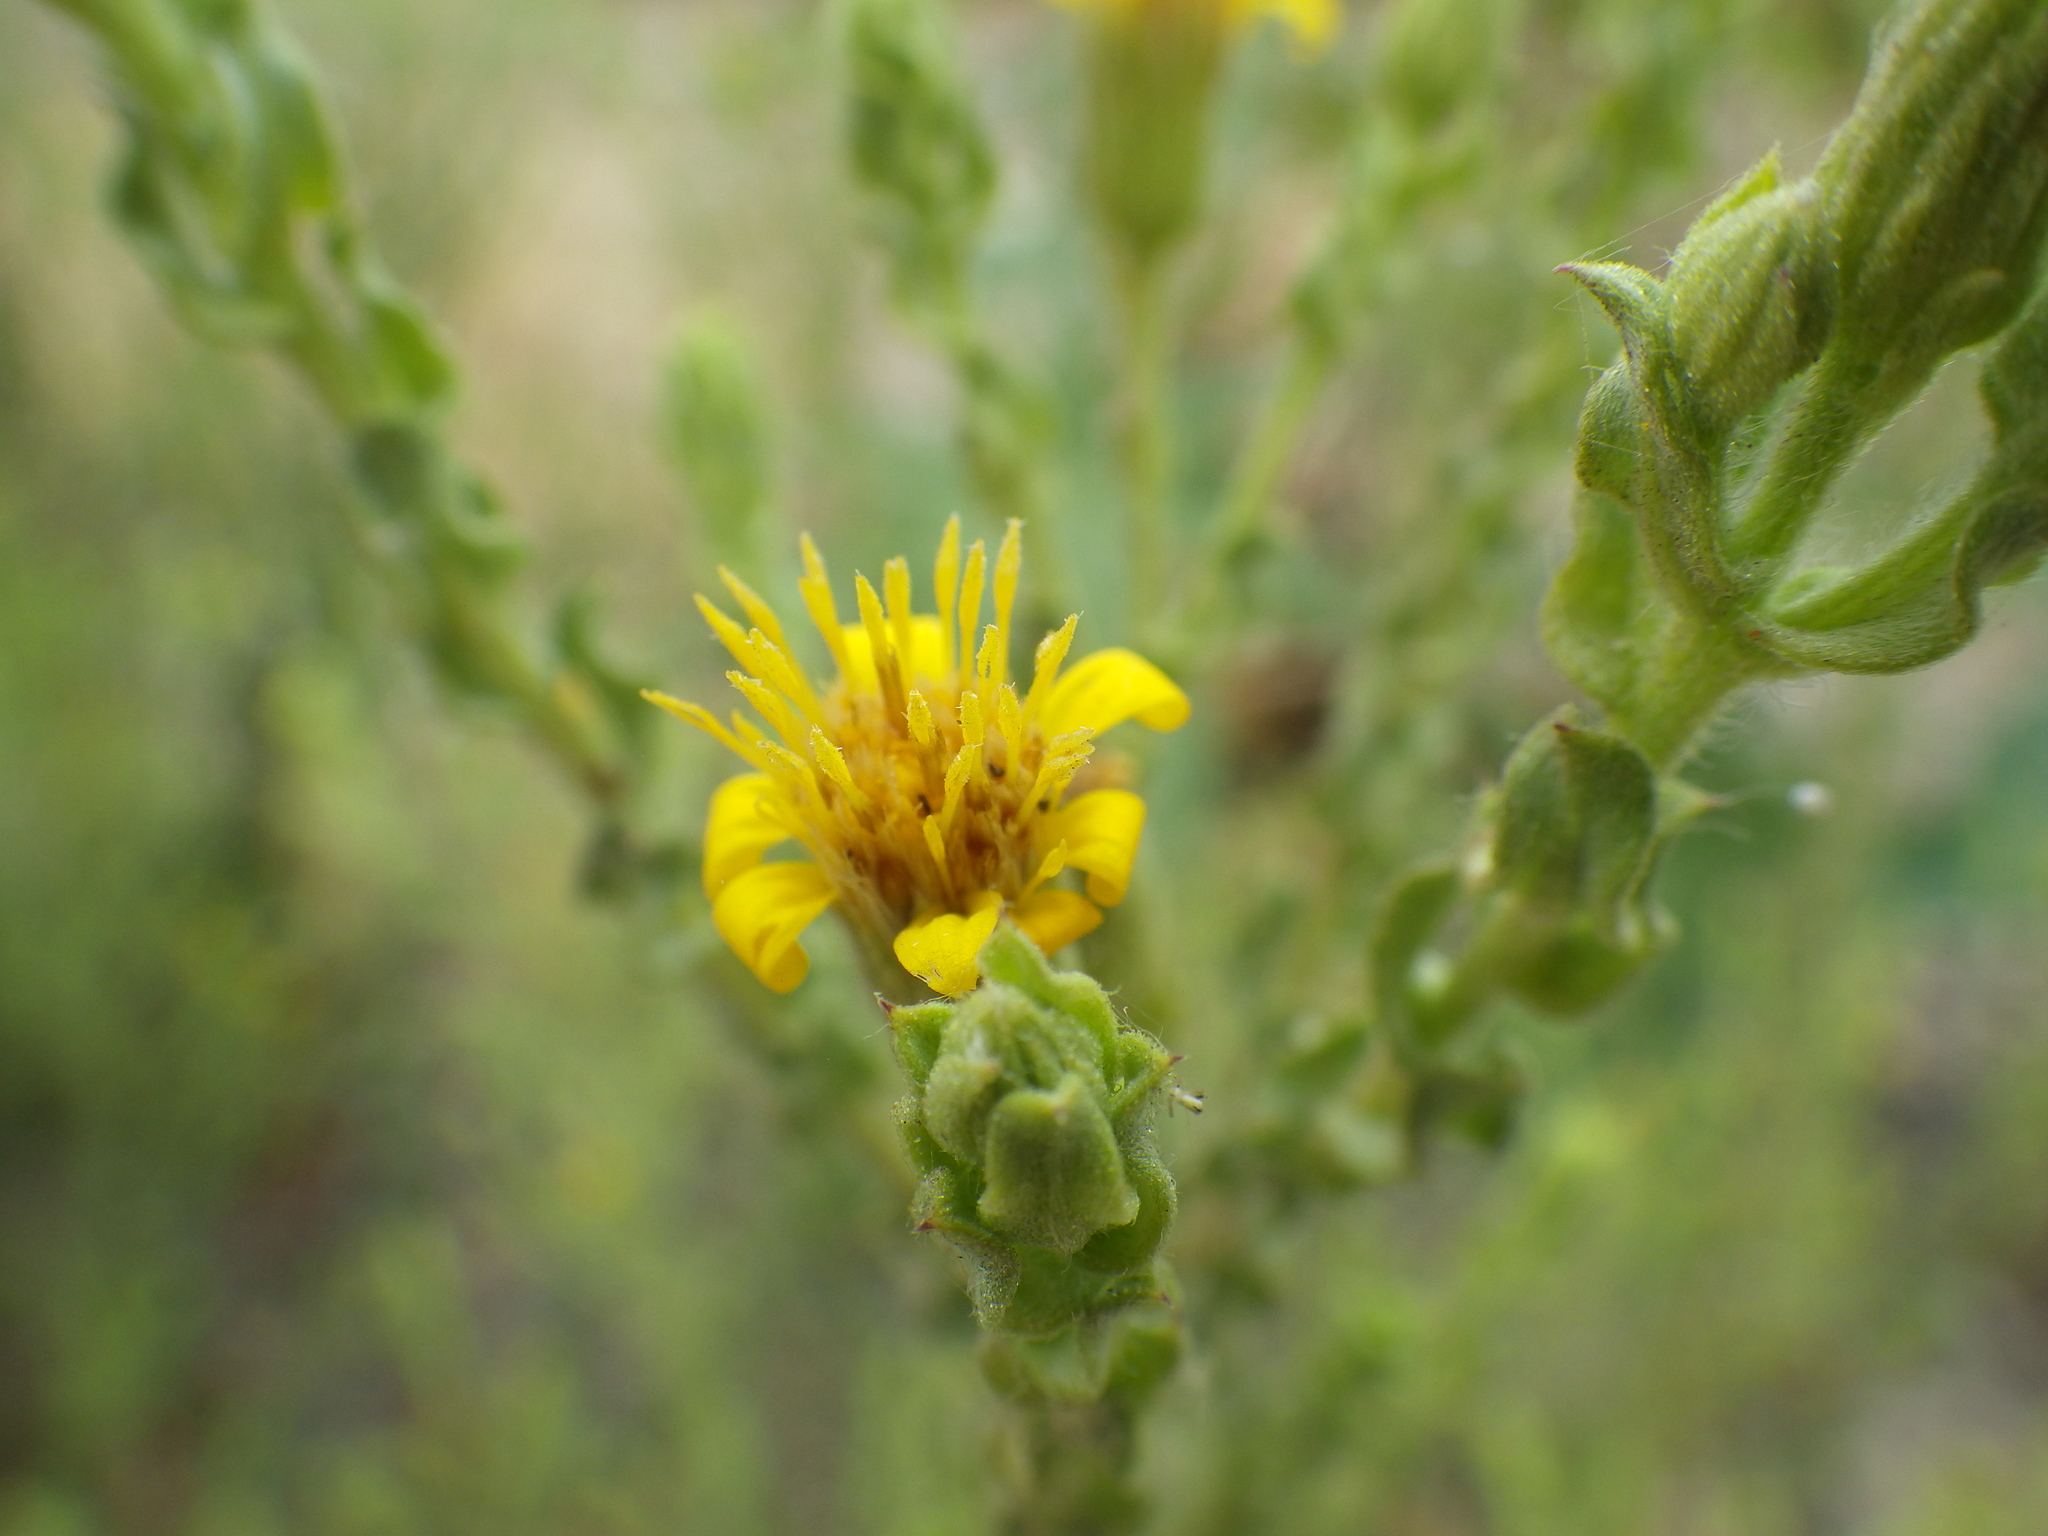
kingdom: Plantae
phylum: Tracheophyta
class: Magnoliopsida
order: Asterales
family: Asteraceae
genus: Heterotheca
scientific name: Heterotheca fastigiata
